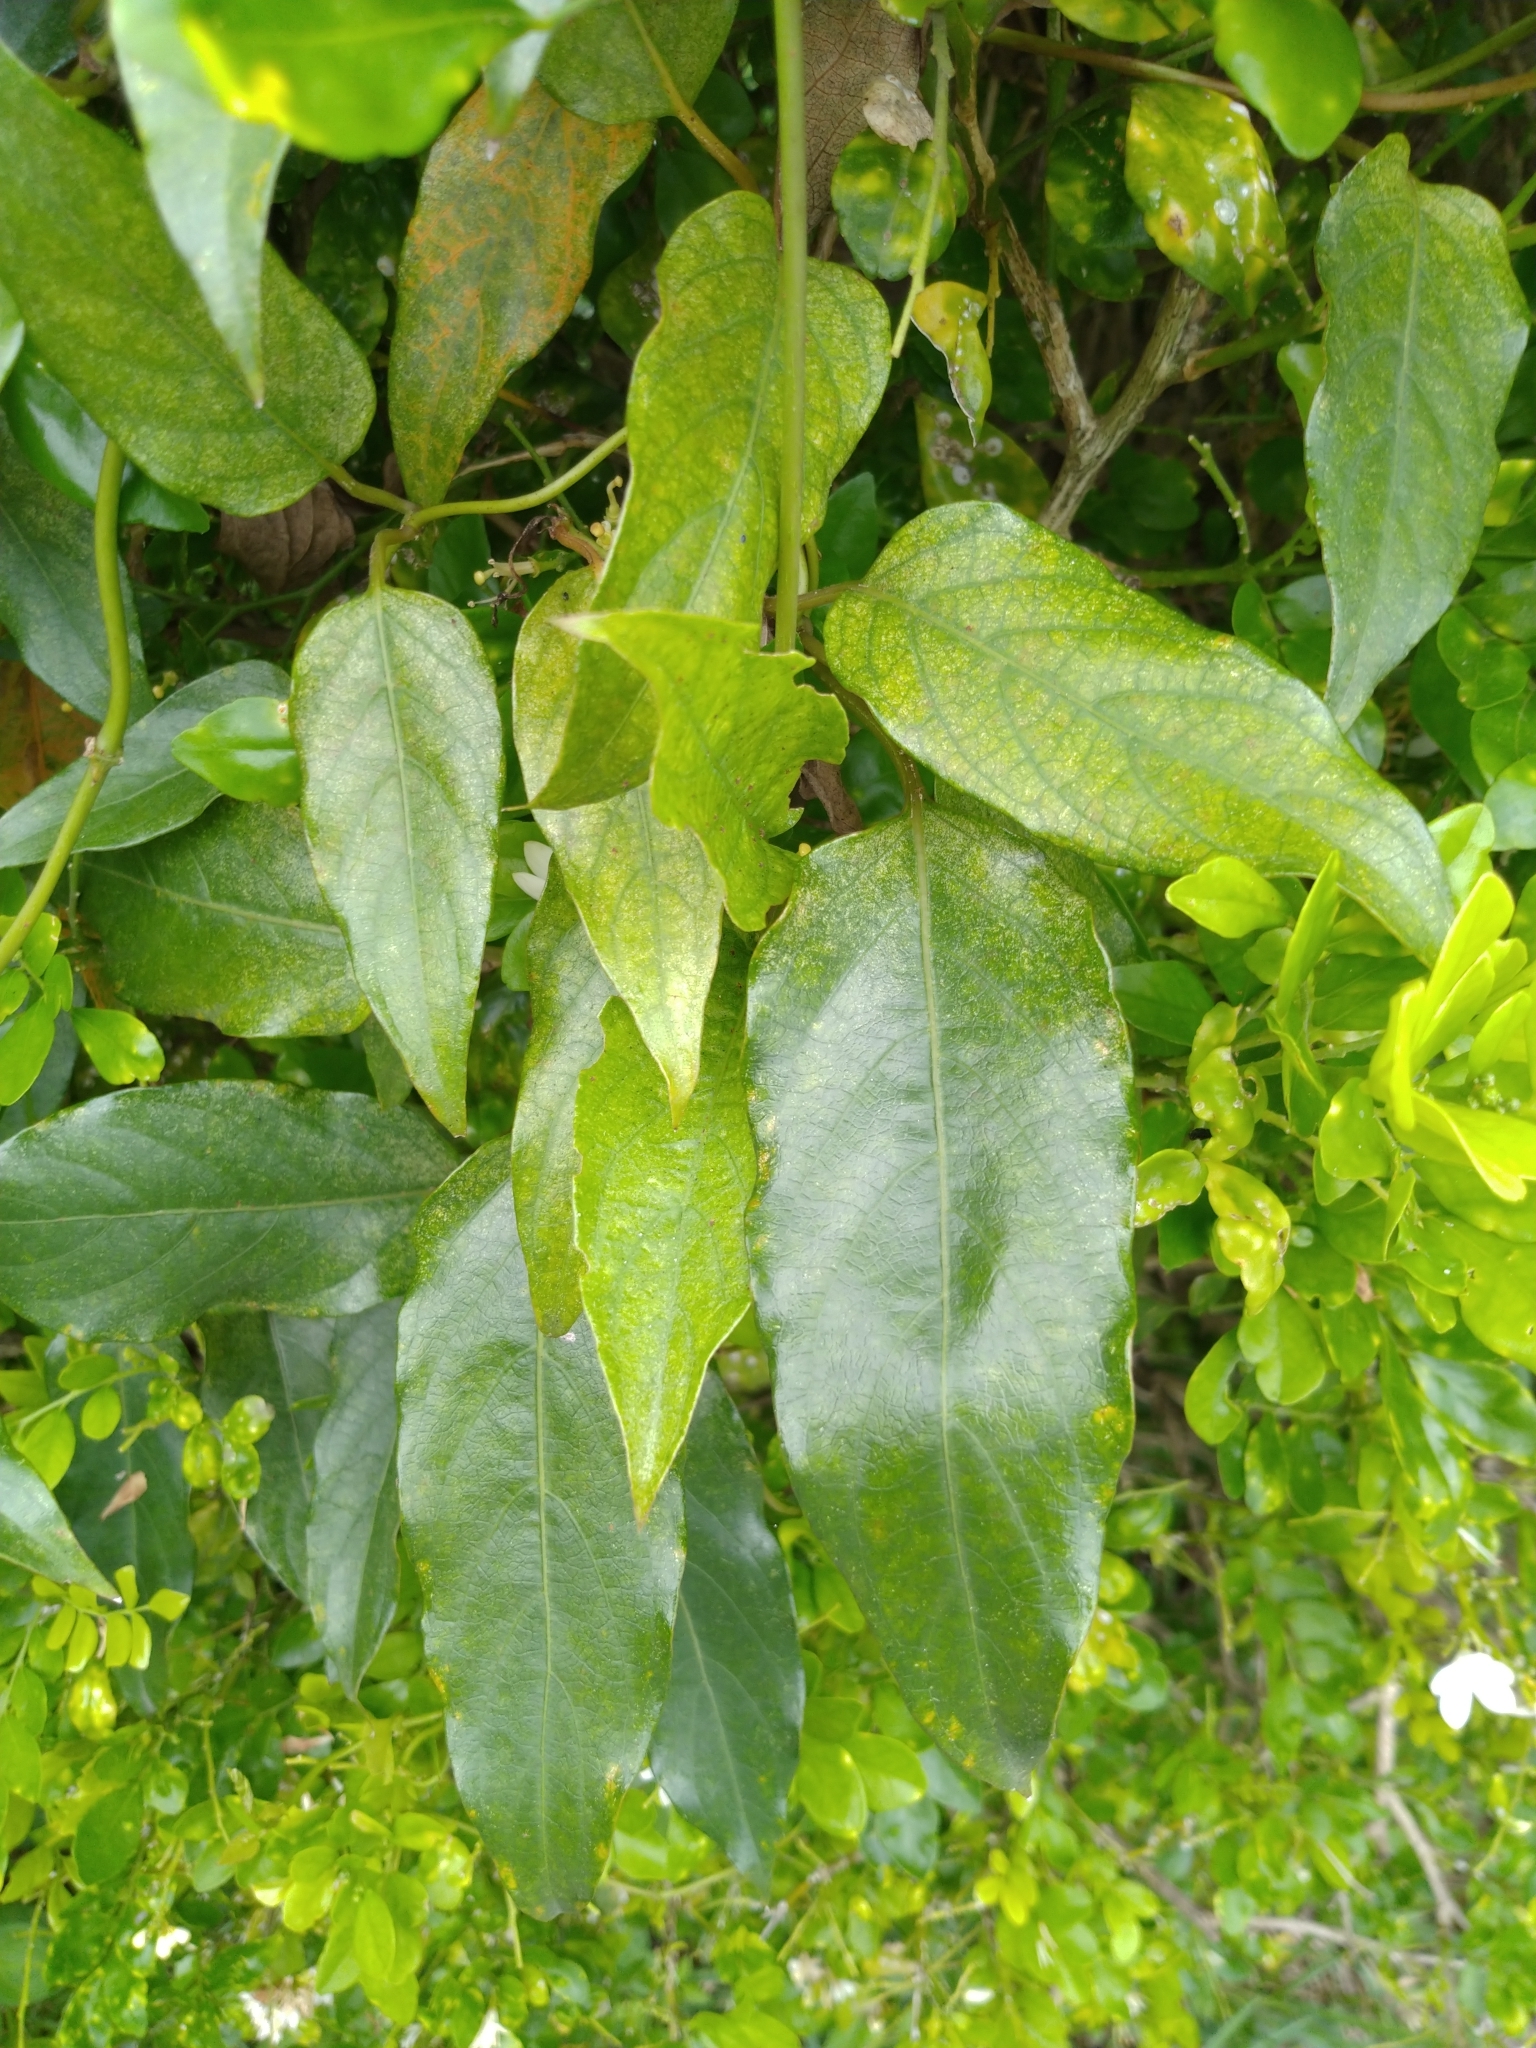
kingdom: Plantae
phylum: Tracheophyta
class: Magnoliopsida
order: Gentianales
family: Rubiaceae
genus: Paederia
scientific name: Paederia foetida
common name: Stinkvine
